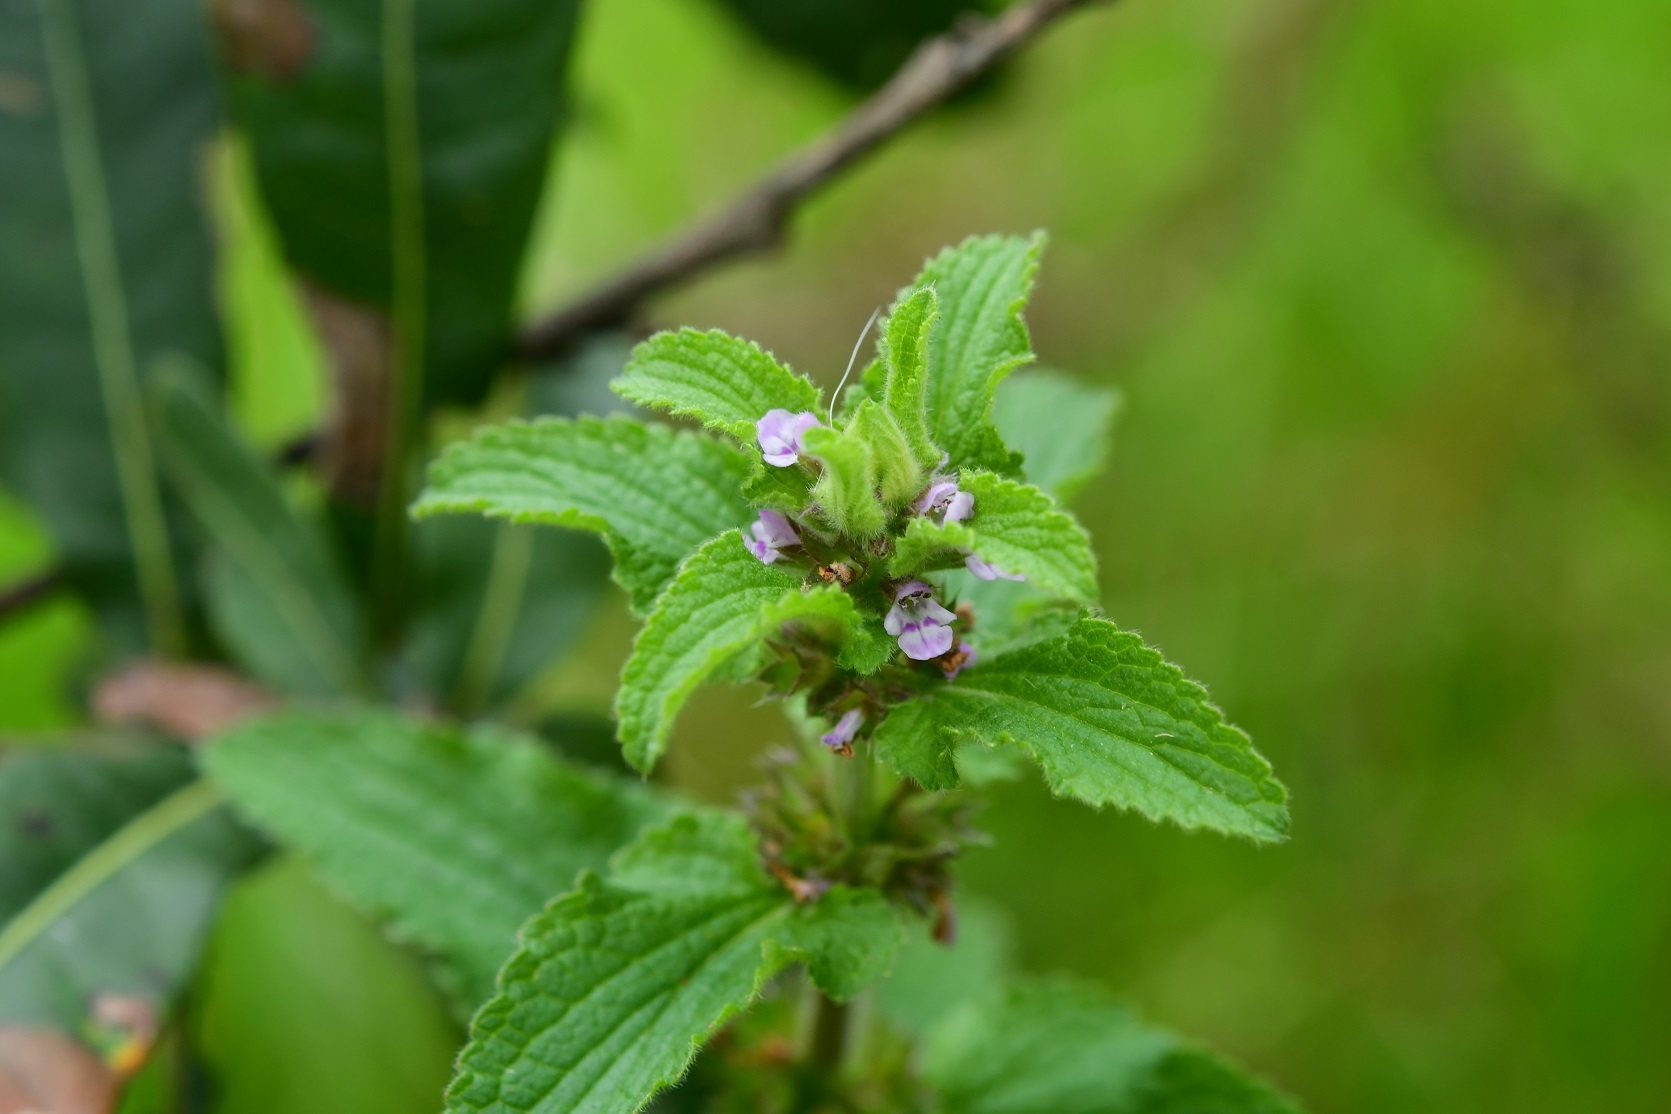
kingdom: Plantae
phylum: Tracheophyta
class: Magnoliopsida
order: Lamiales
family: Lamiaceae
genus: Stachys
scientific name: Stachys agraria
